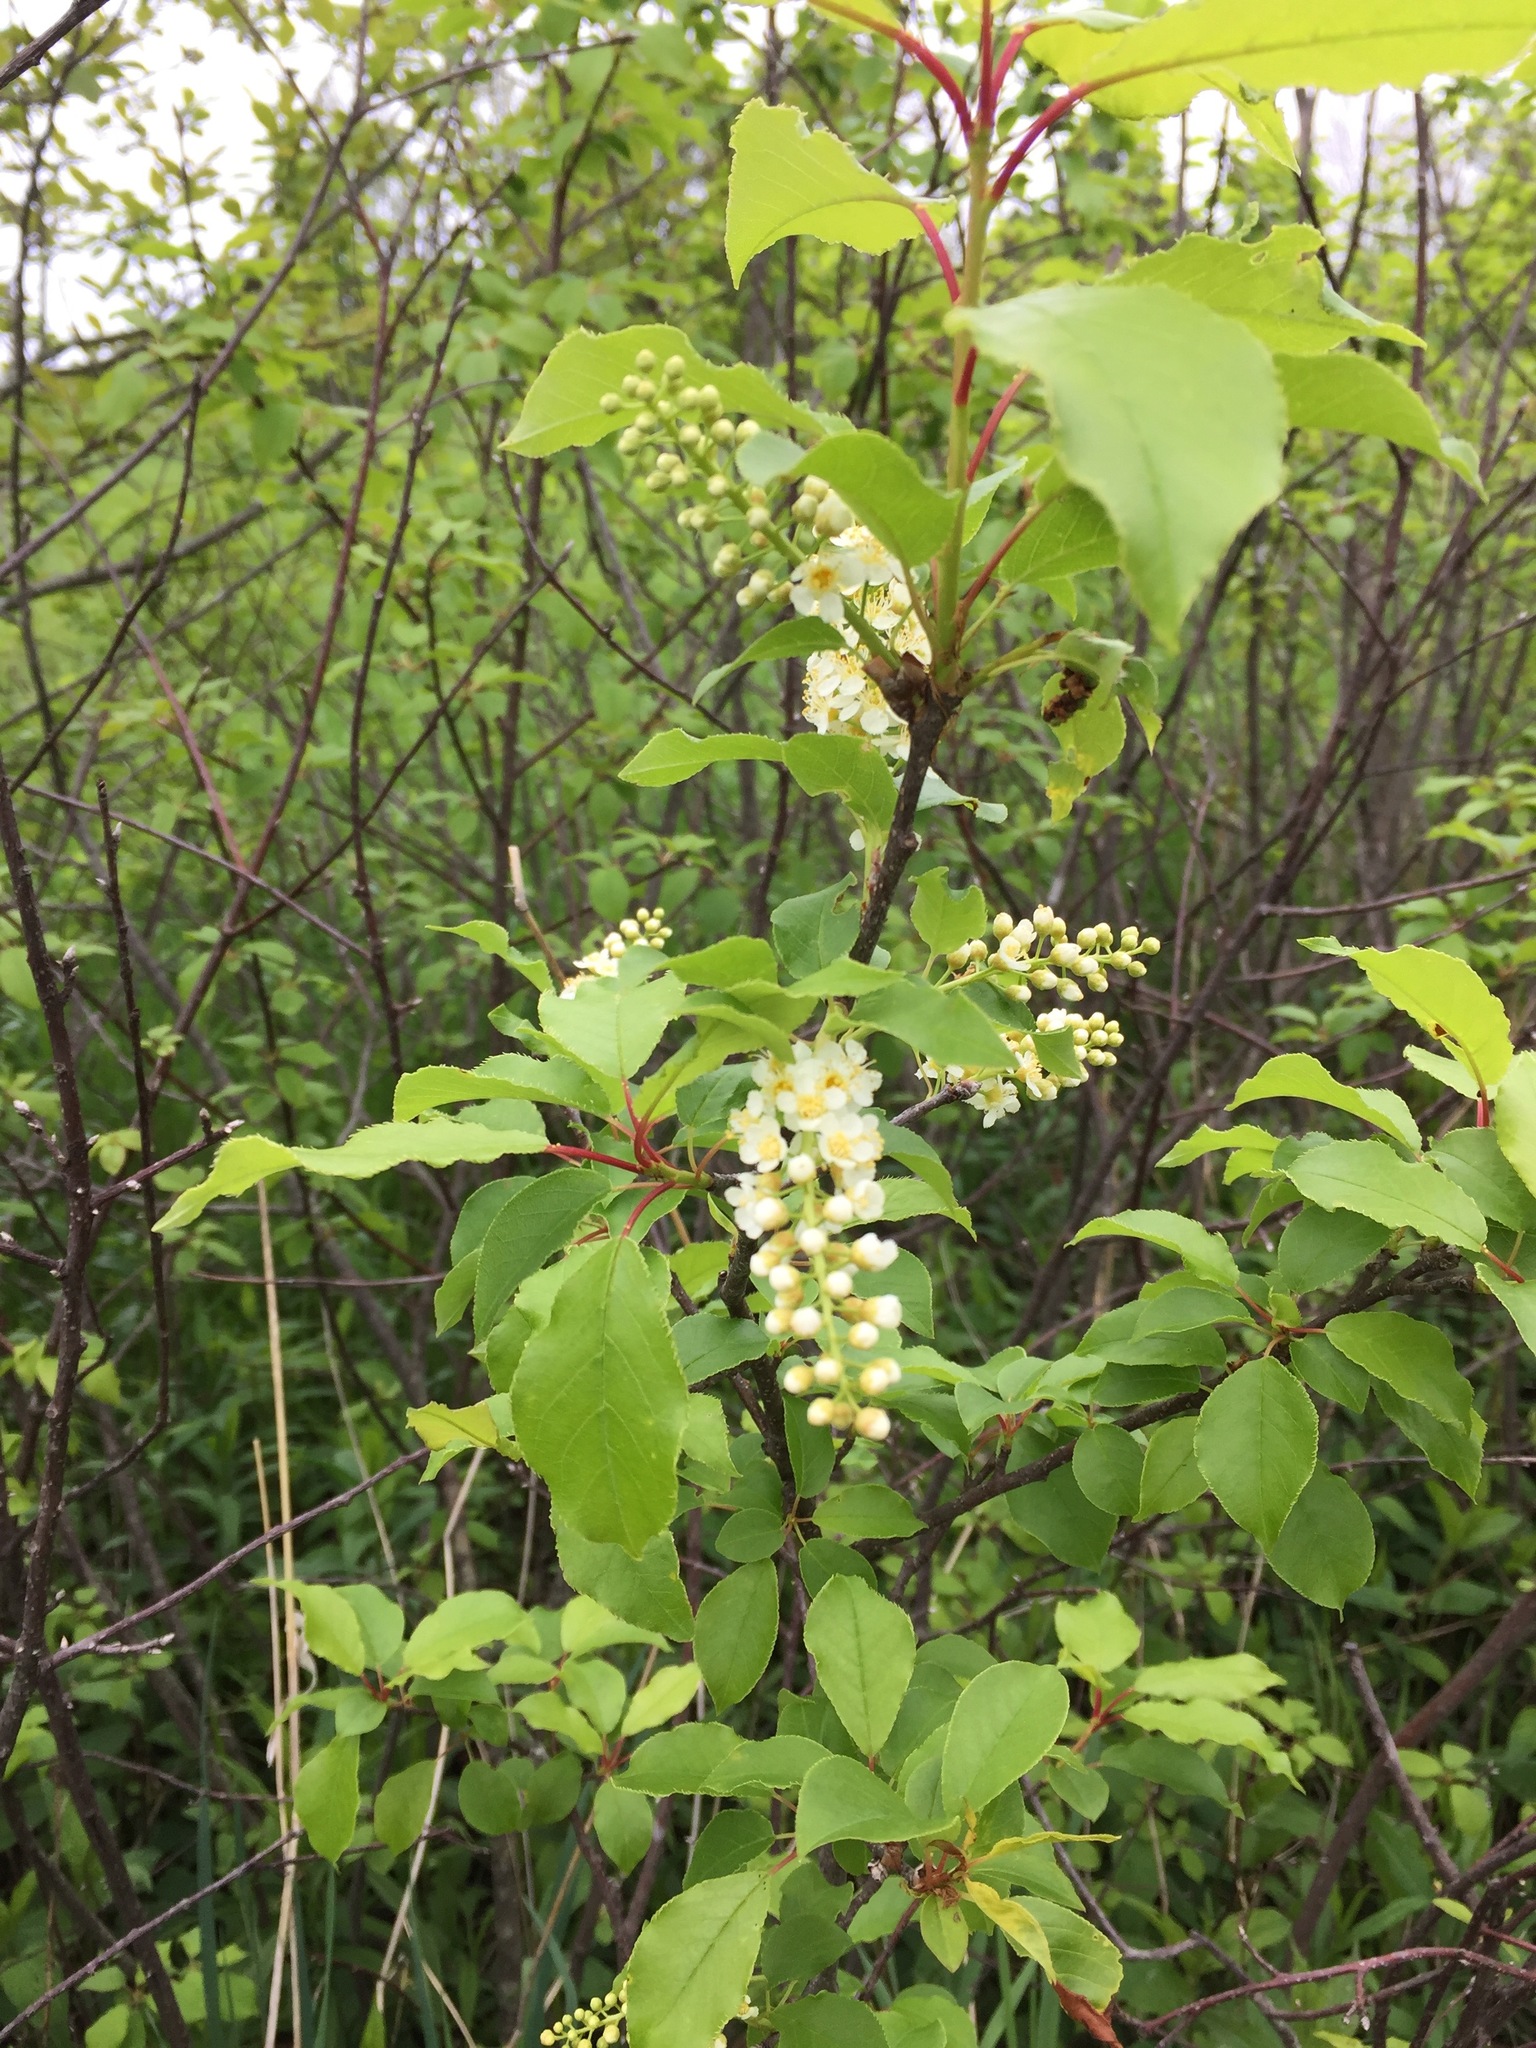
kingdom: Plantae
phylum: Tracheophyta
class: Magnoliopsida
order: Rosales
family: Rosaceae
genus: Prunus
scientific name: Prunus virginiana
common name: Chokecherry
